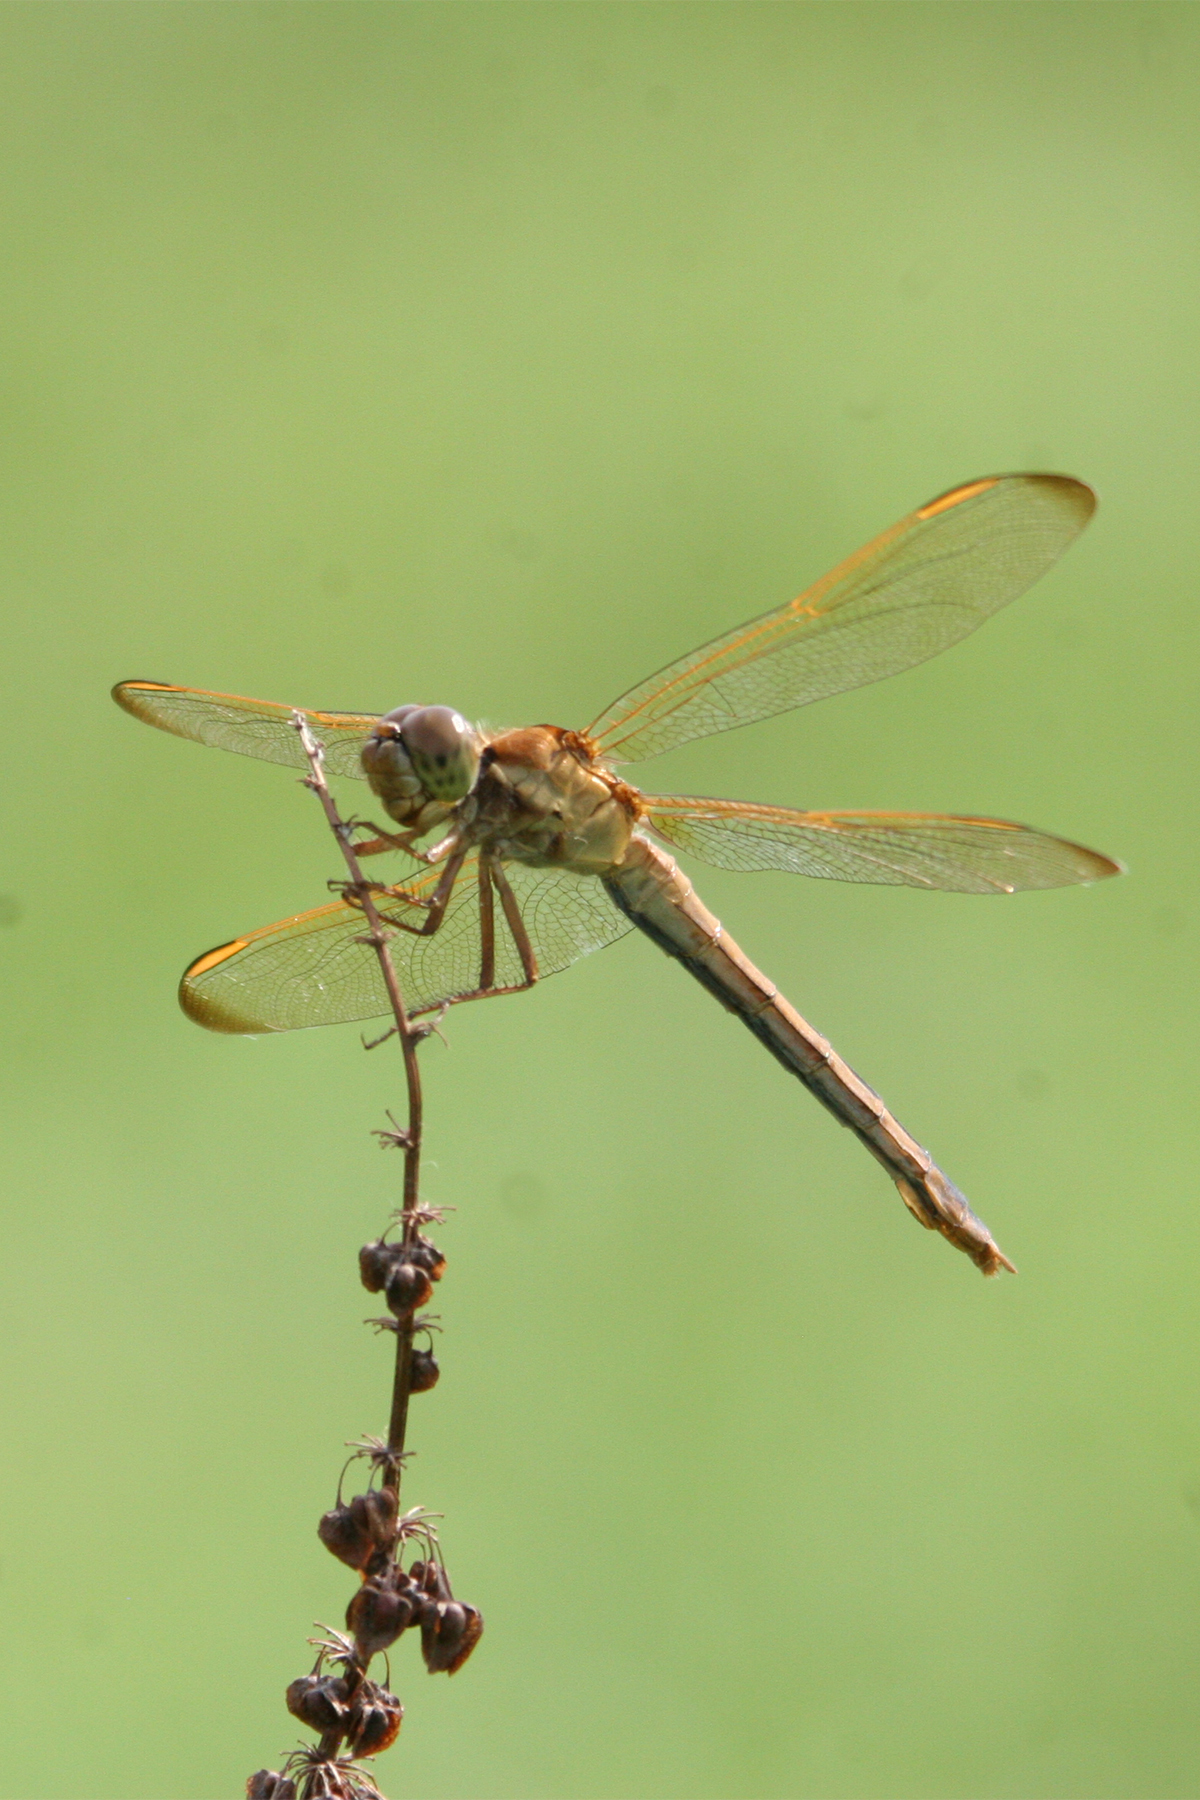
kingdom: Animalia
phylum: Arthropoda
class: Insecta
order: Odonata
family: Libellulidae
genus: Libellula
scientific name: Libellula needhami
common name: Needham's skimmer
